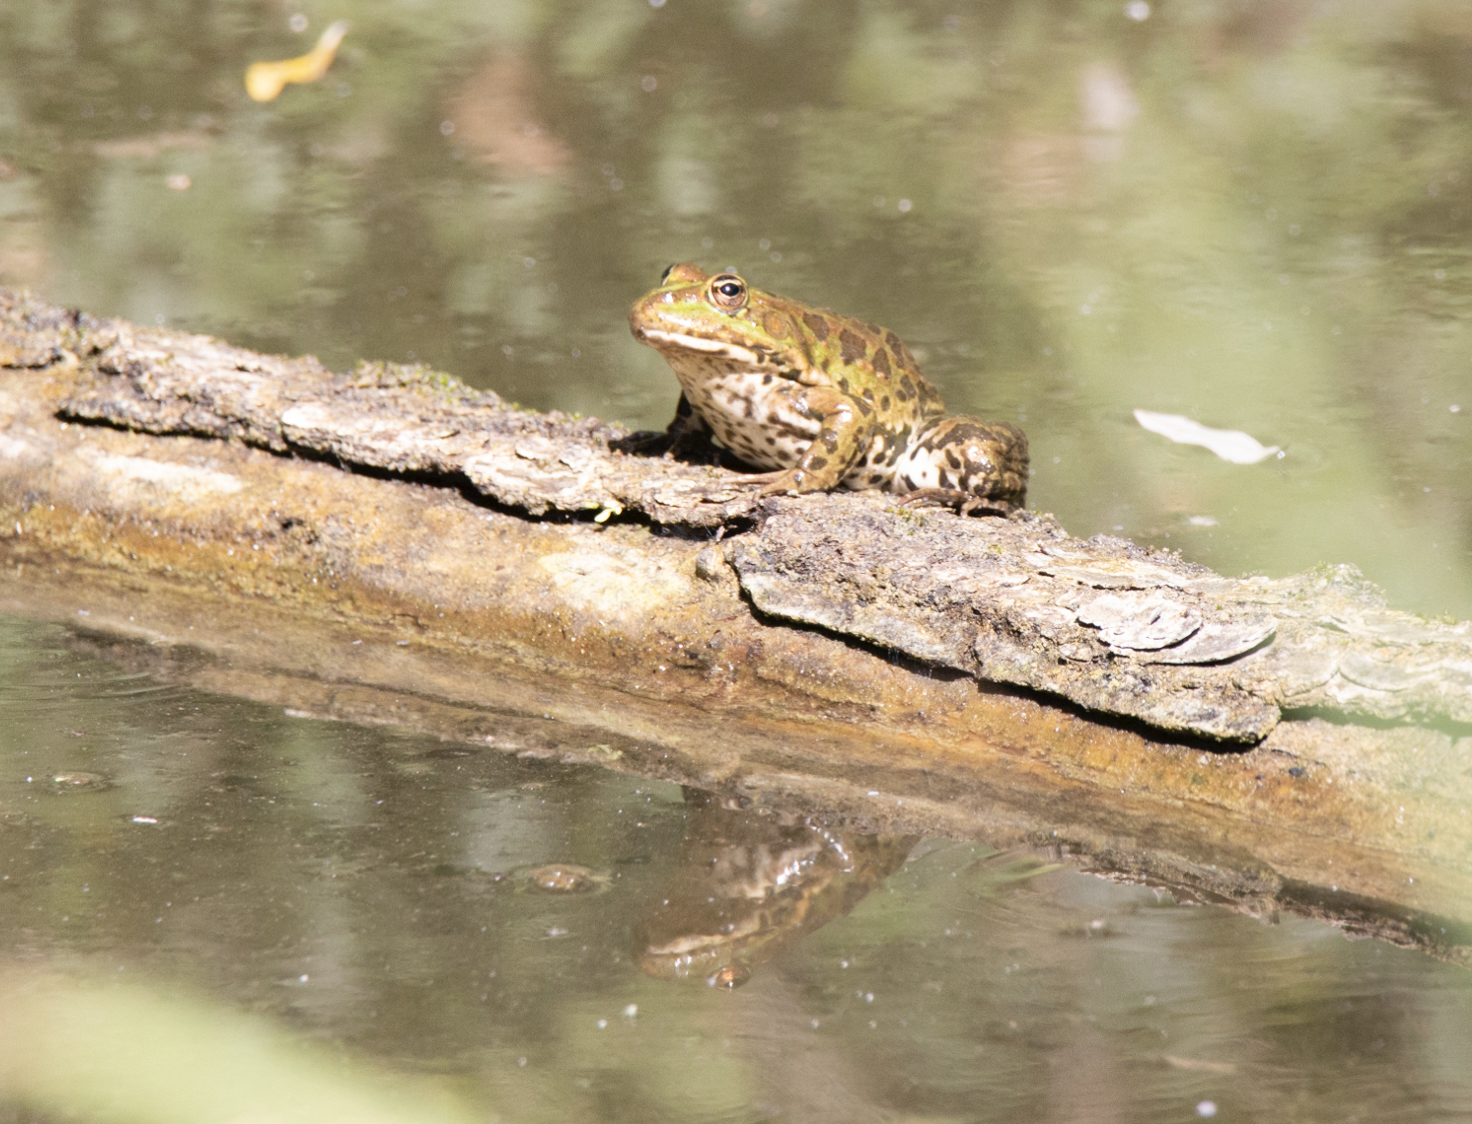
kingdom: Animalia
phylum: Chordata
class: Amphibia
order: Anura
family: Ranidae
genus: Pelophylax
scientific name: Pelophylax
